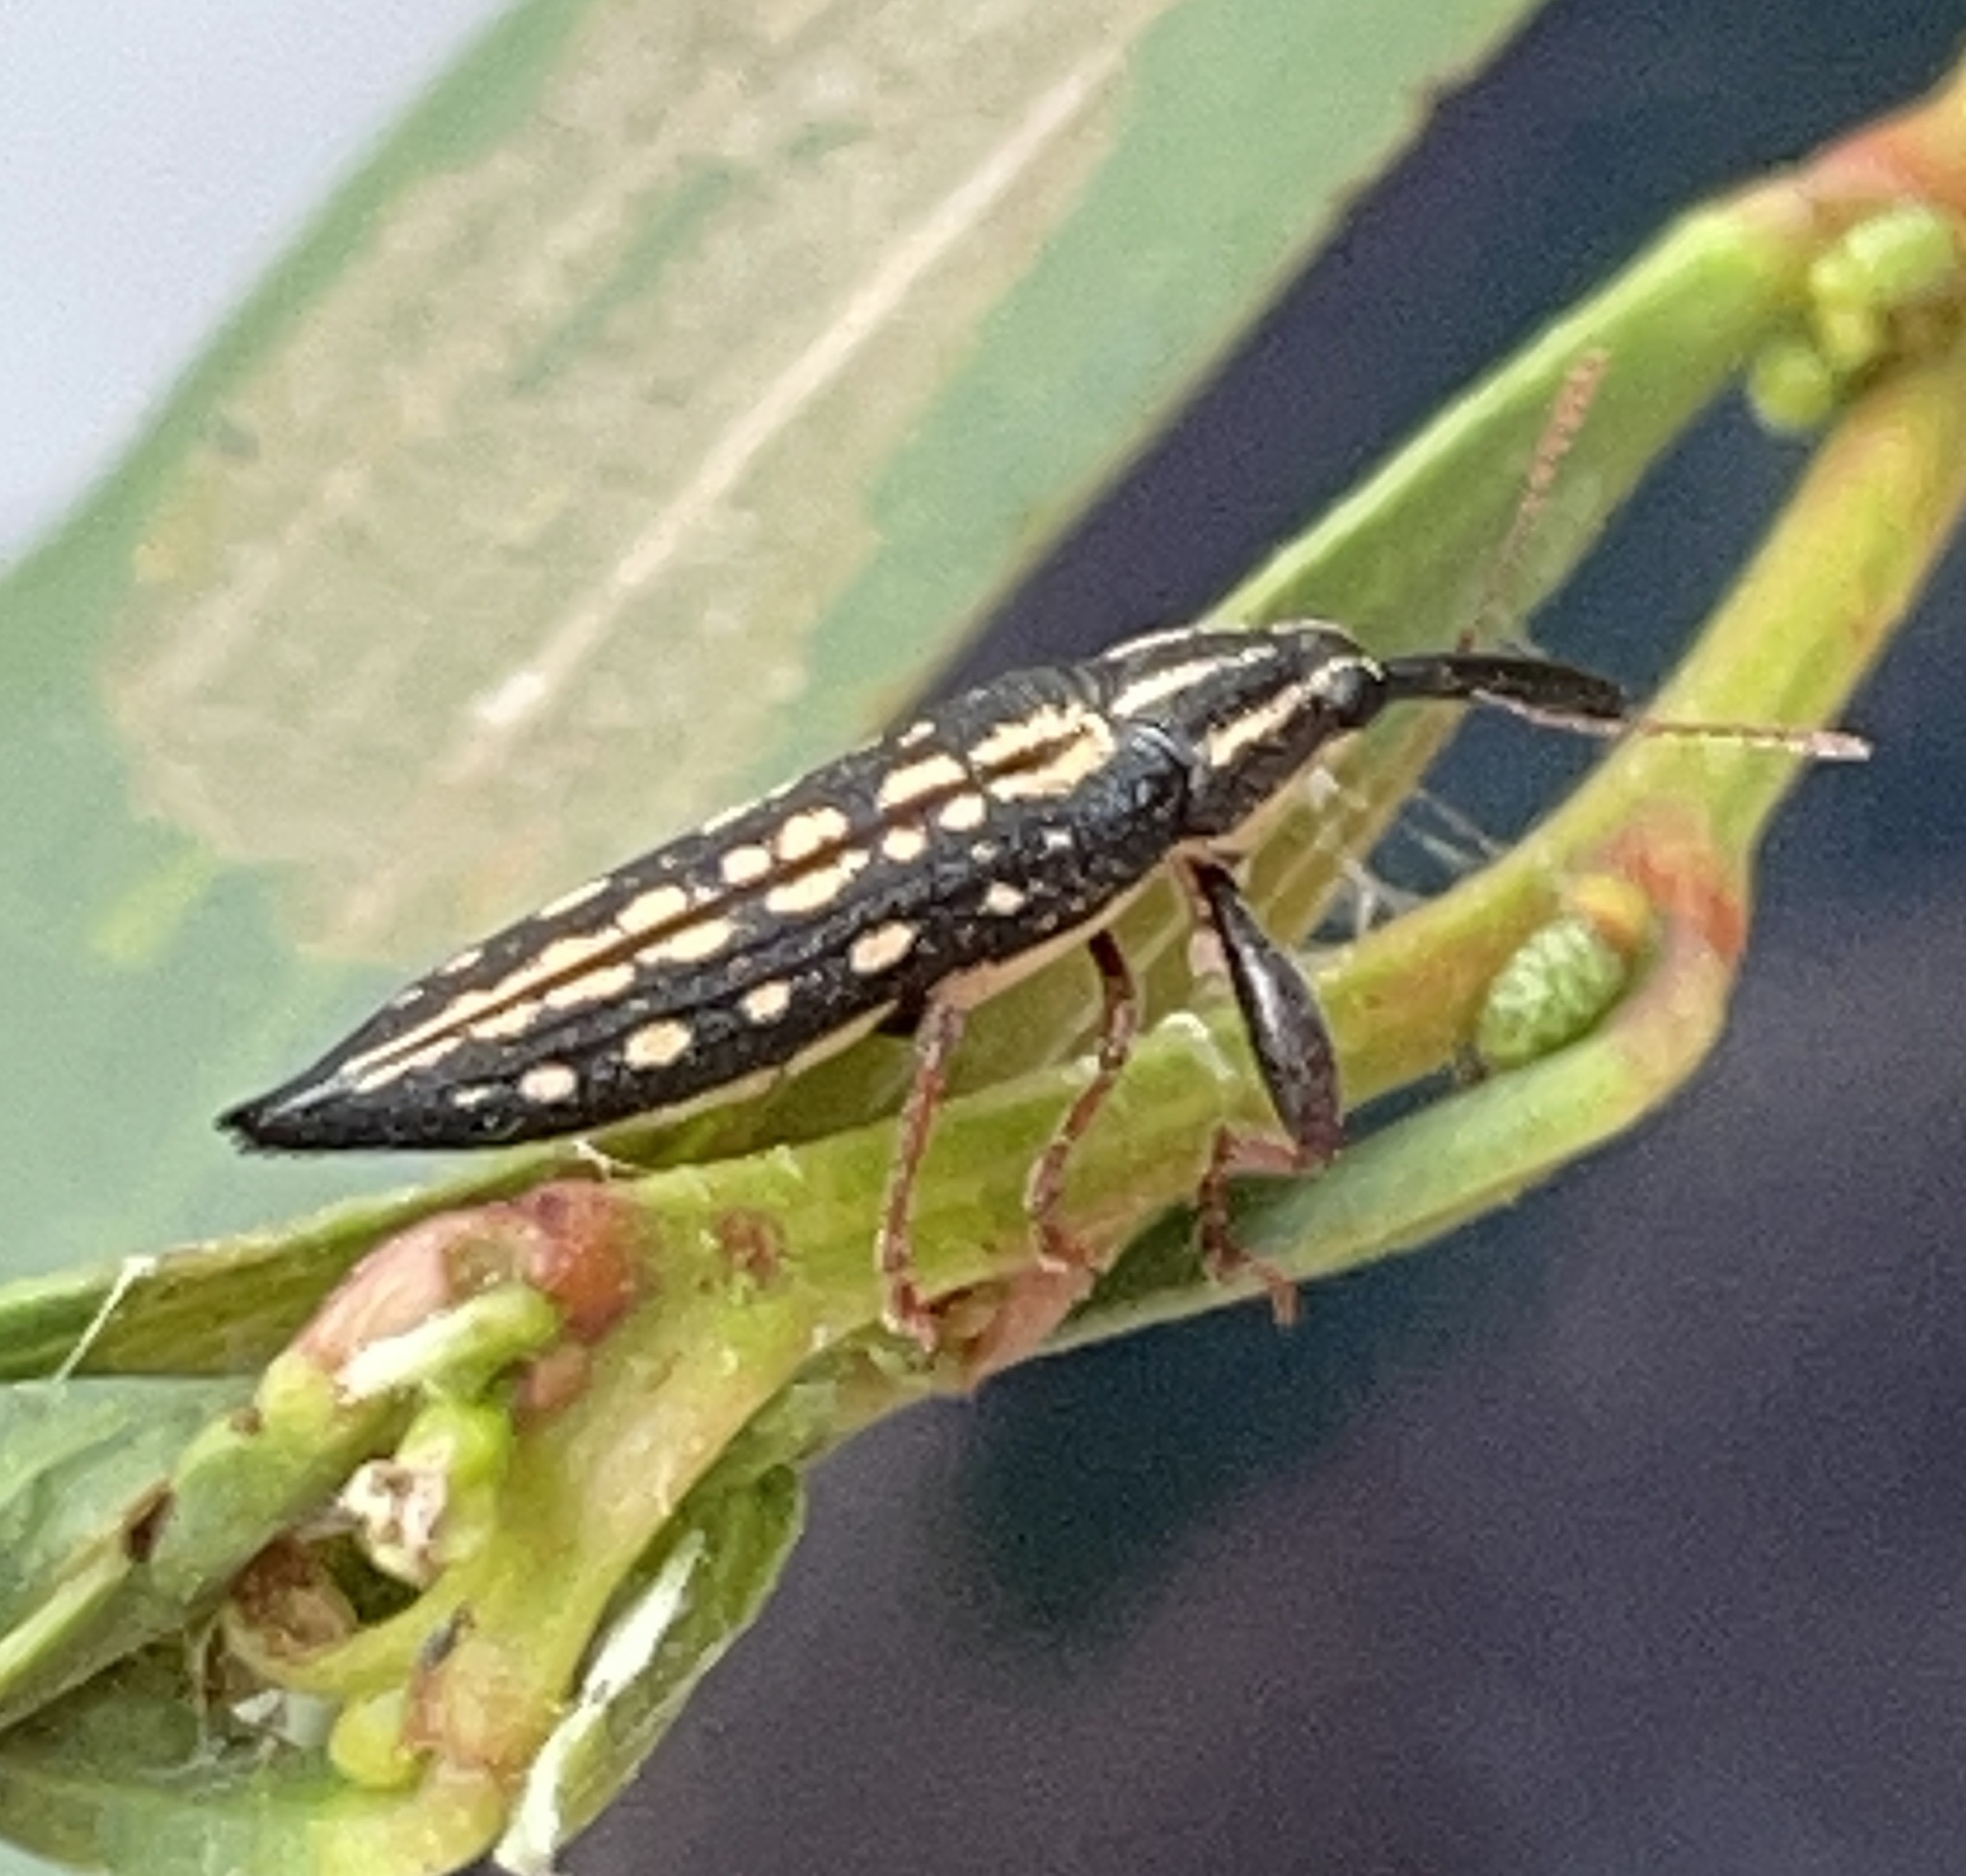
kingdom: Animalia
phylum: Arthropoda
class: Insecta
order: Coleoptera
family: Belidae
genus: Rhinotia
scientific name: Rhinotia lineata
